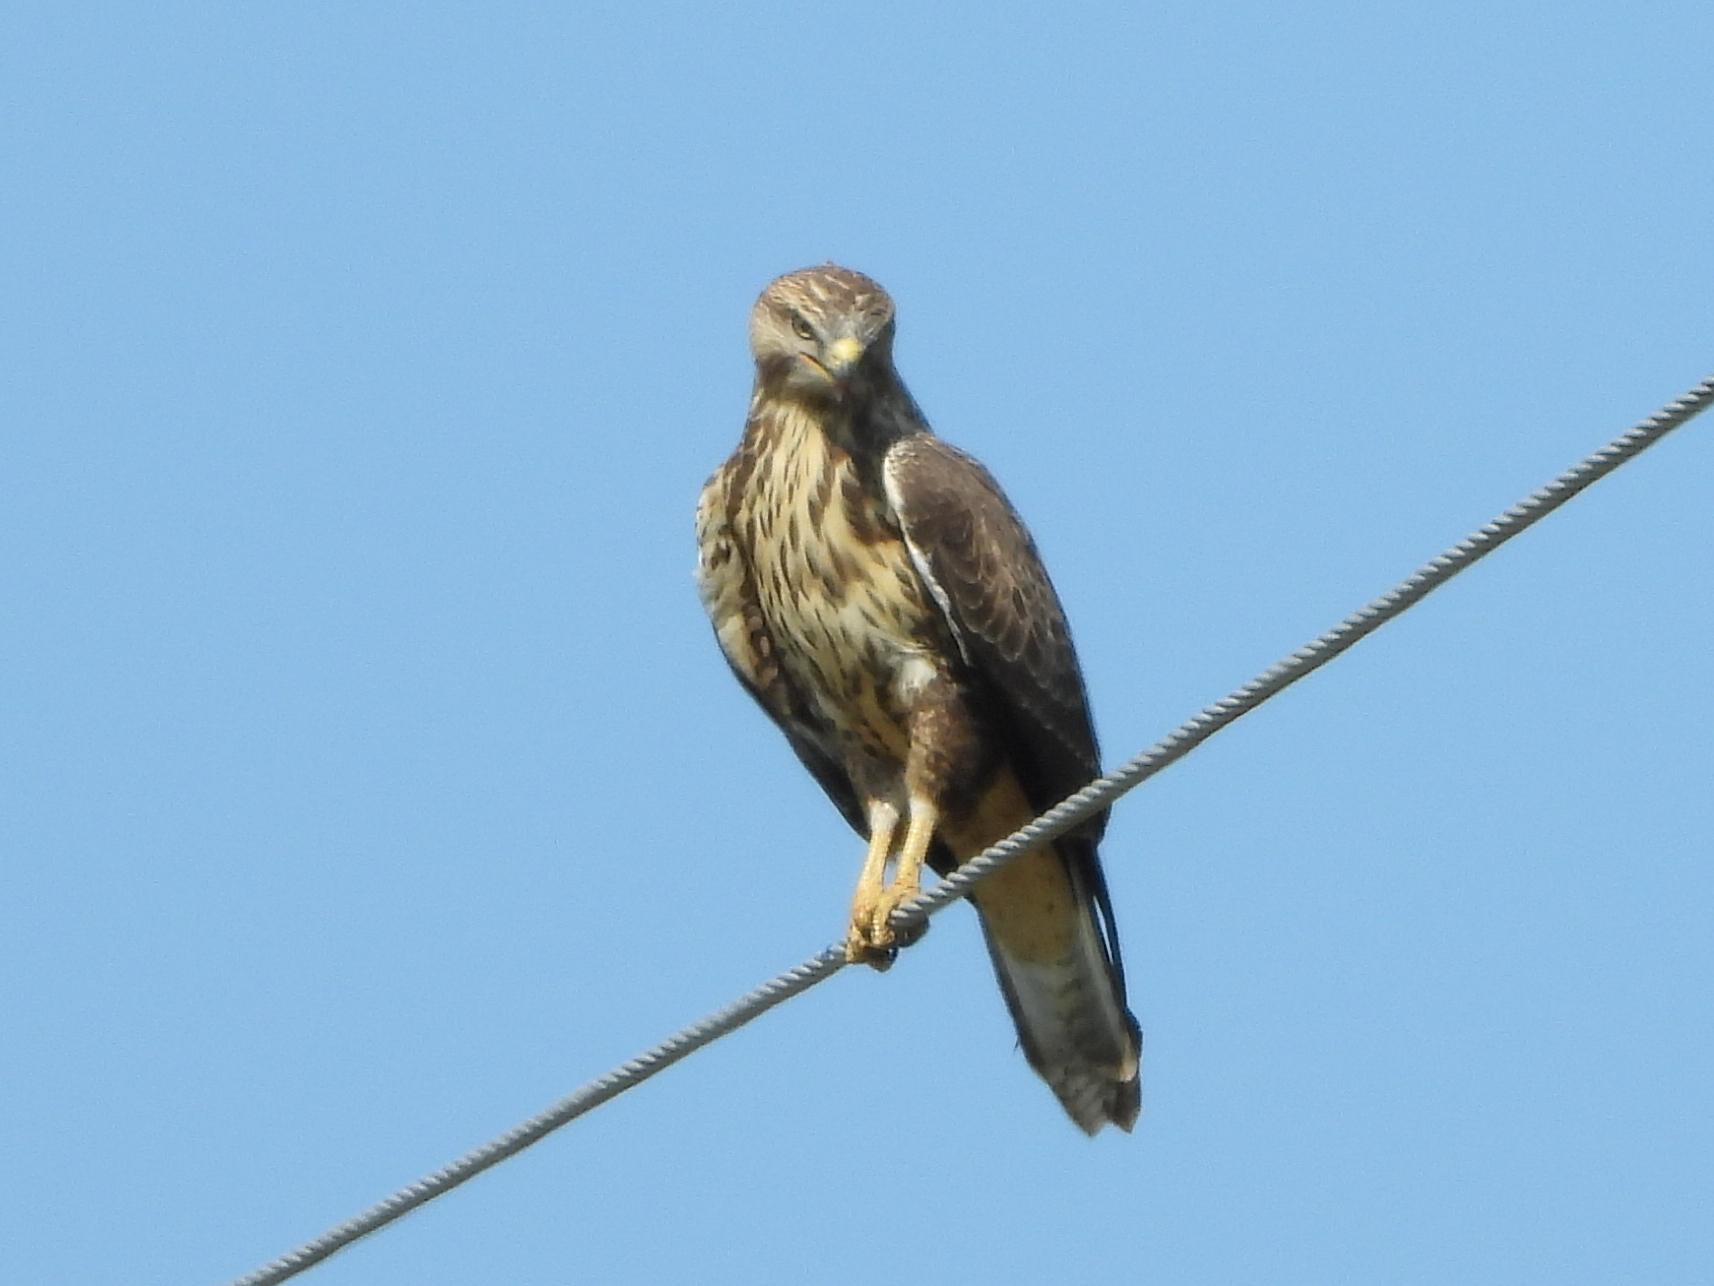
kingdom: Animalia
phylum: Chordata
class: Aves
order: Accipitriformes
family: Accipitridae
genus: Buteo
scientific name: Buteo buteo
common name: Common buzzard
